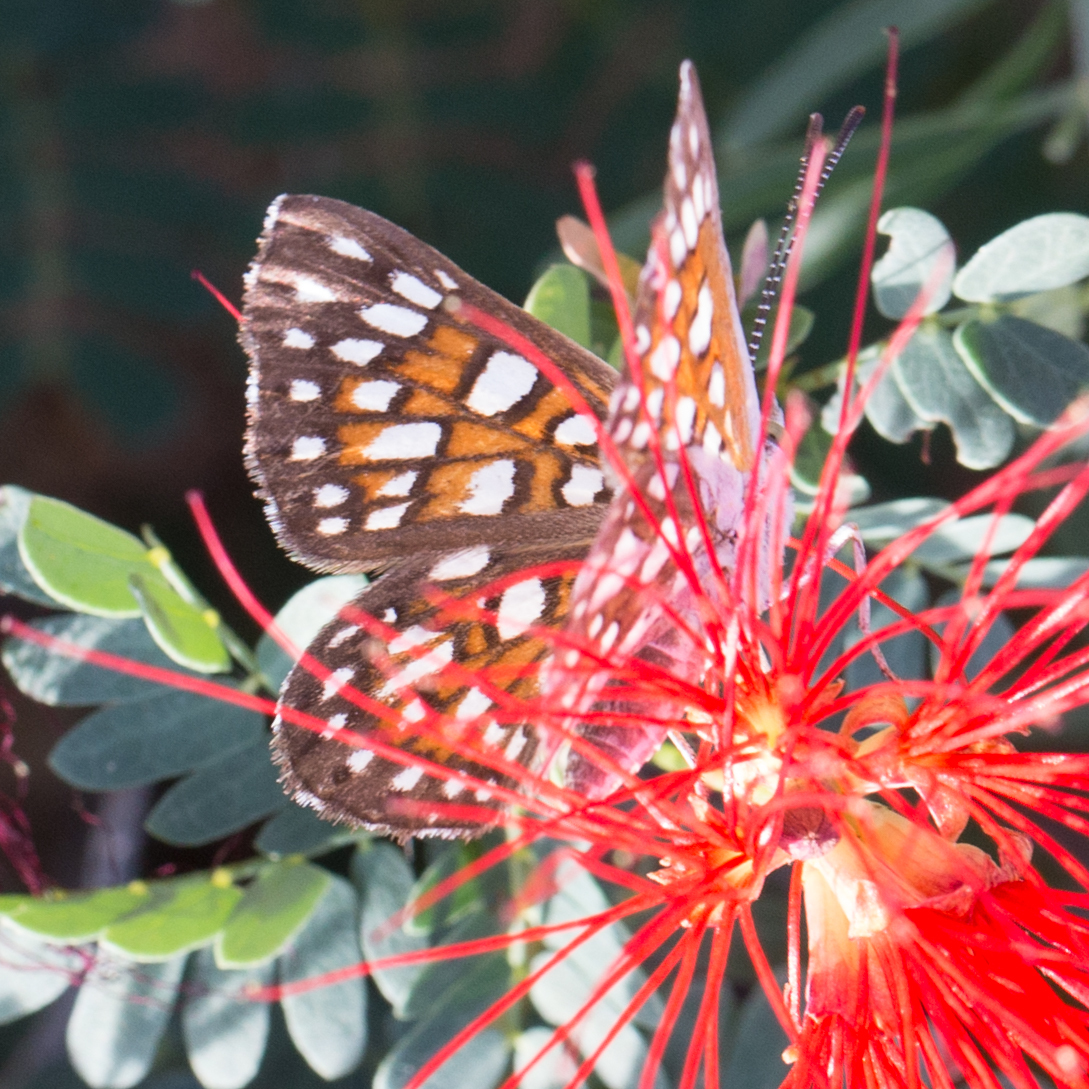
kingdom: Animalia
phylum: Arthropoda
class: Insecta
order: Lepidoptera
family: Riodinidae
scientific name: Riodinidae
